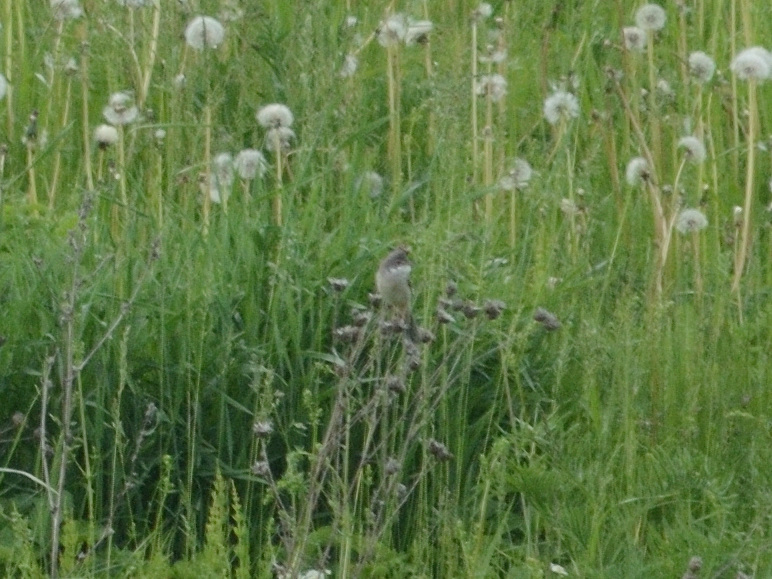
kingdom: Animalia
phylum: Chordata
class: Aves
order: Passeriformes
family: Sylviidae
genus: Sylvia
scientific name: Sylvia communis
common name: Common whitethroat
